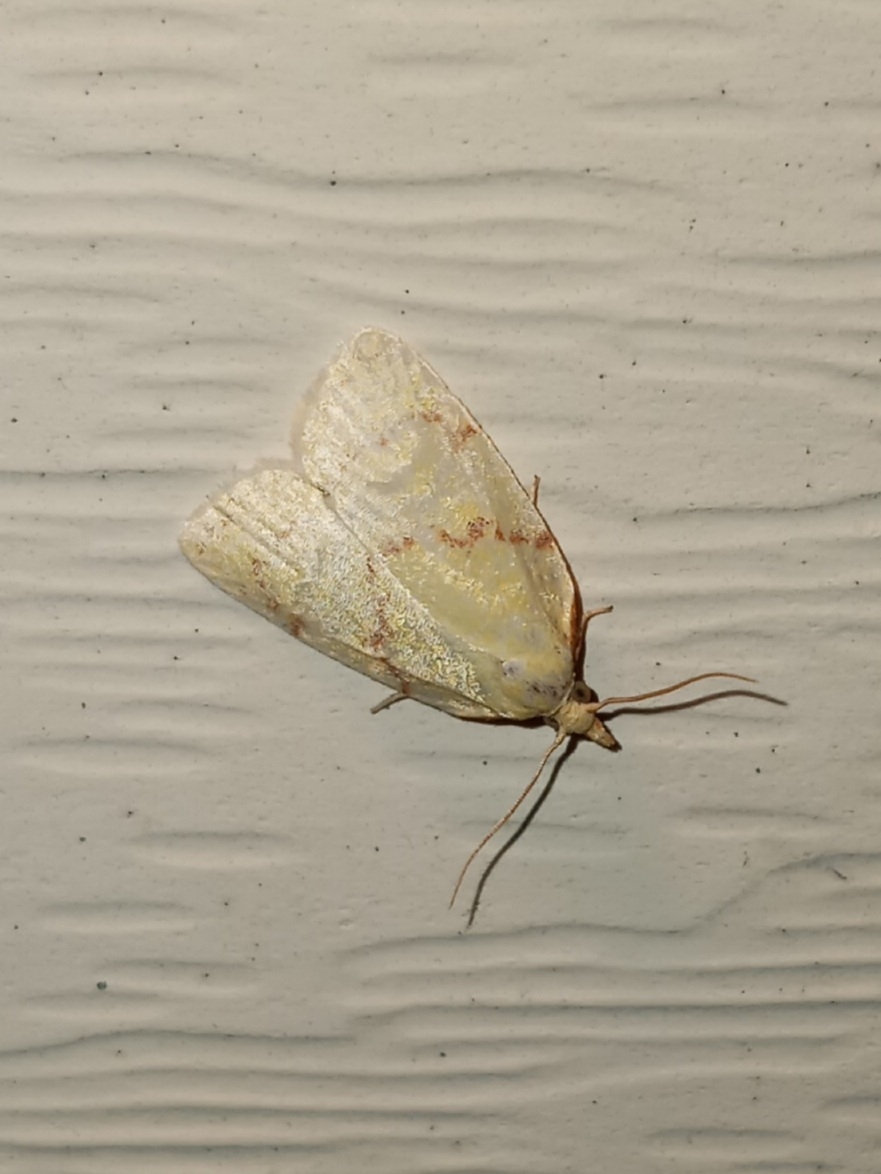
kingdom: Animalia
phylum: Arthropoda
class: Insecta
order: Lepidoptera
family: Tortricidae
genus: Cenopis
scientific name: Cenopis pettitana
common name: Maple-basswood leafroller moth
